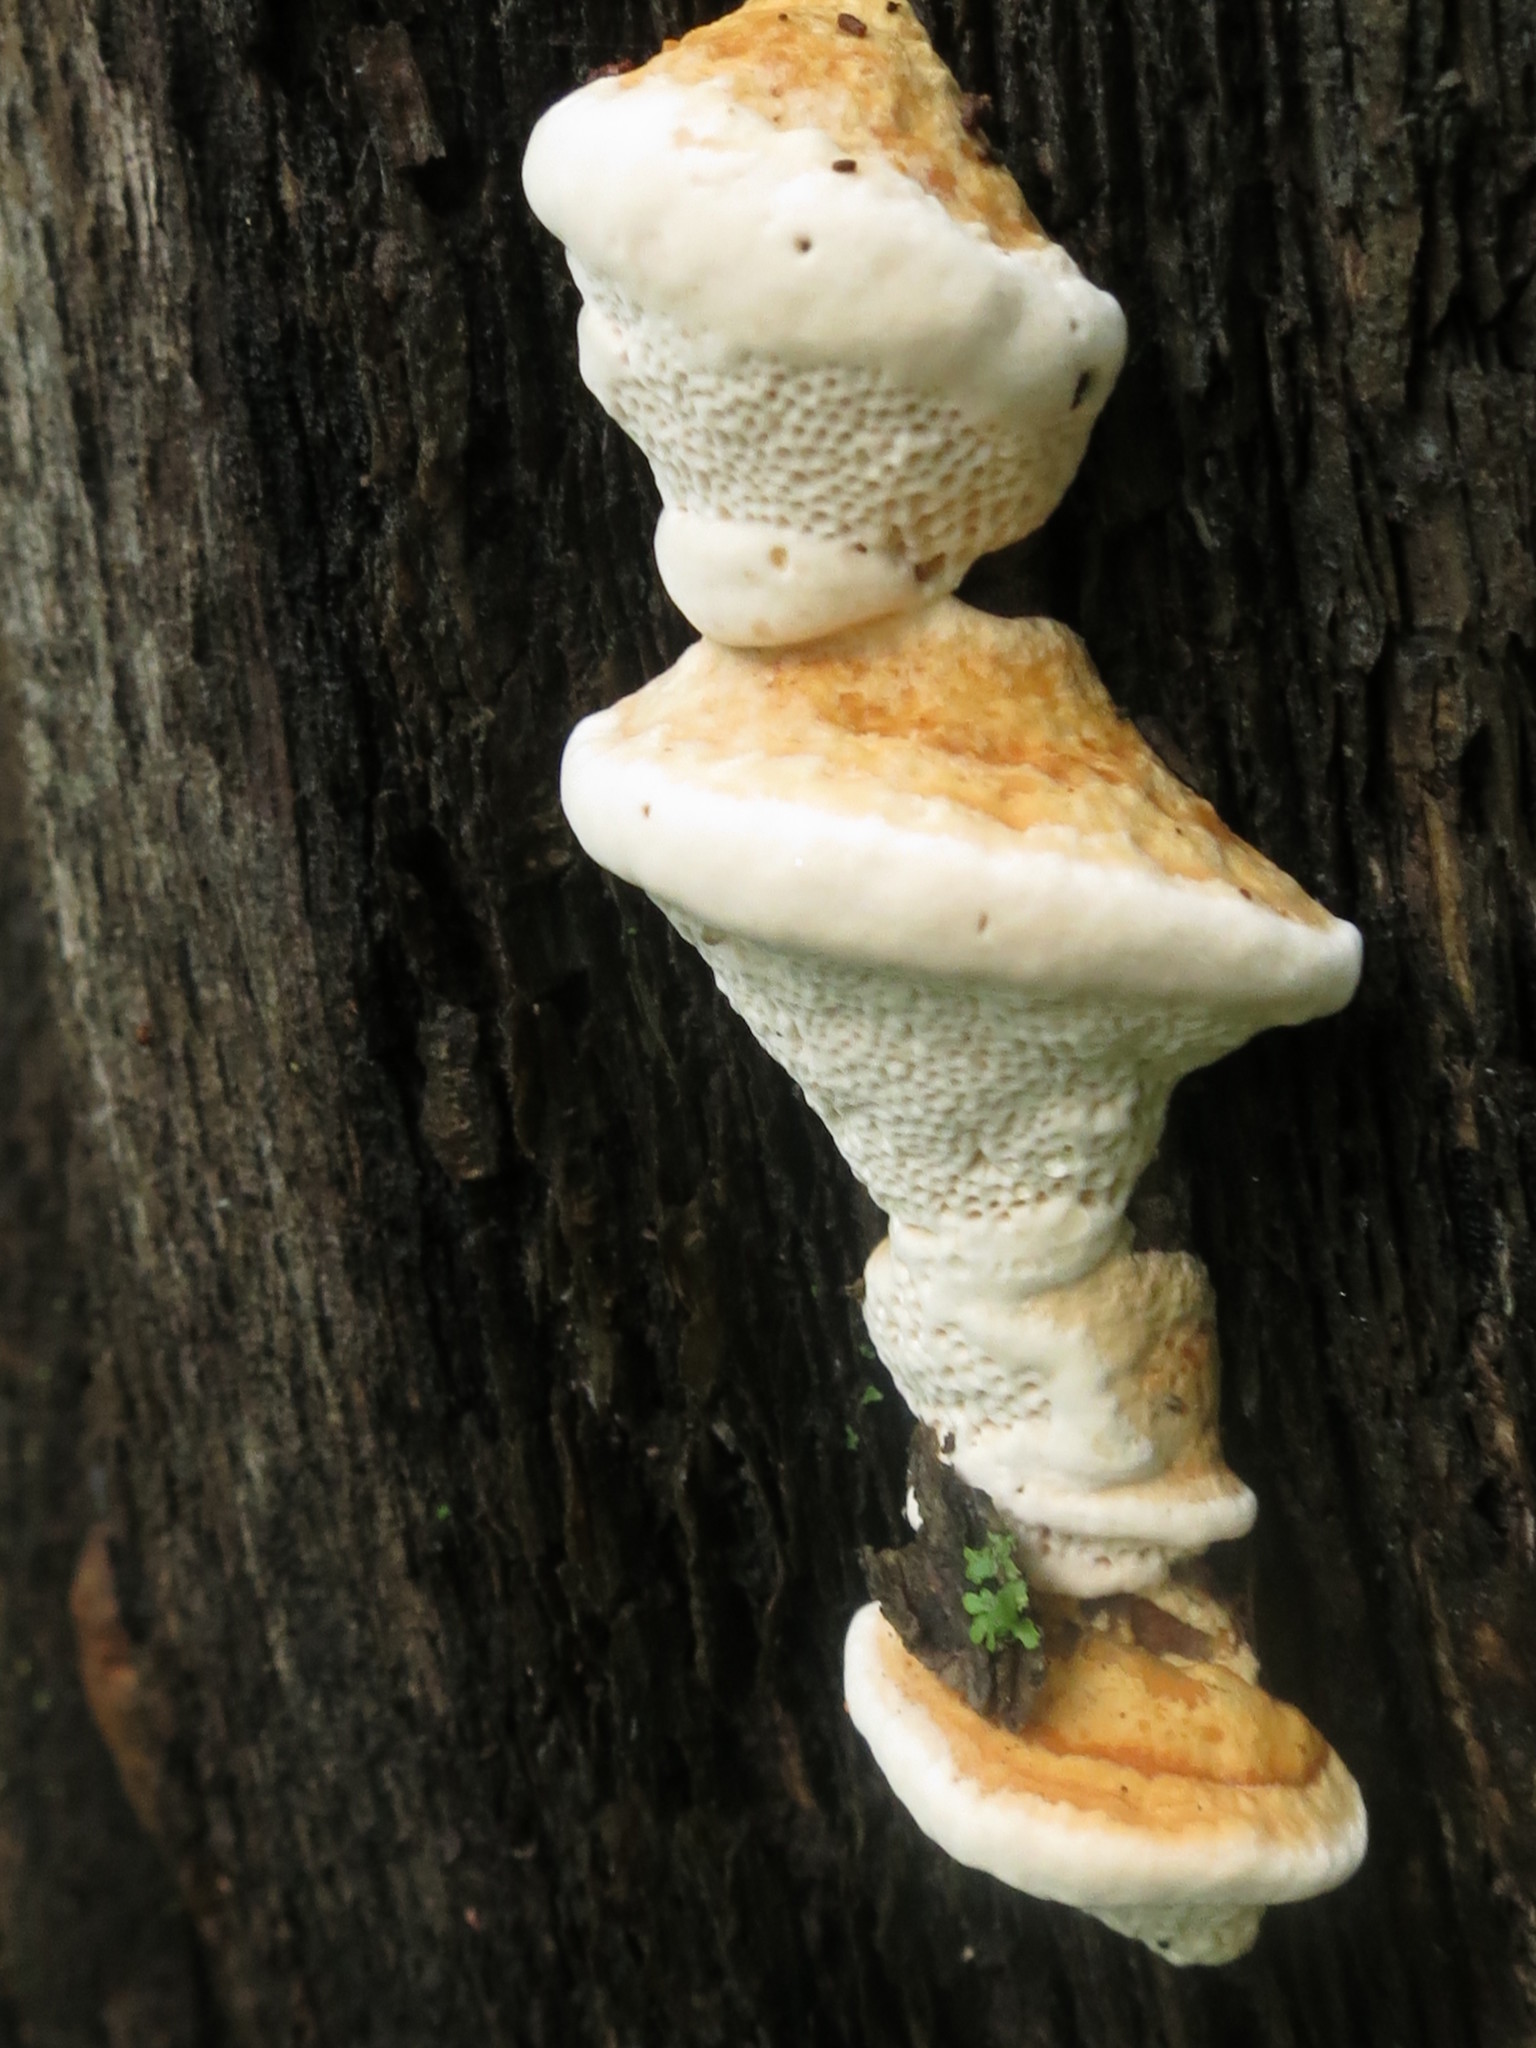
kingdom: Fungi
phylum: Basidiomycota
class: Agaricomycetes
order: Polyporales
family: Fomitopsidaceae
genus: Fomitopsis
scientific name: Fomitopsis pinicola
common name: Red-belted bracket
